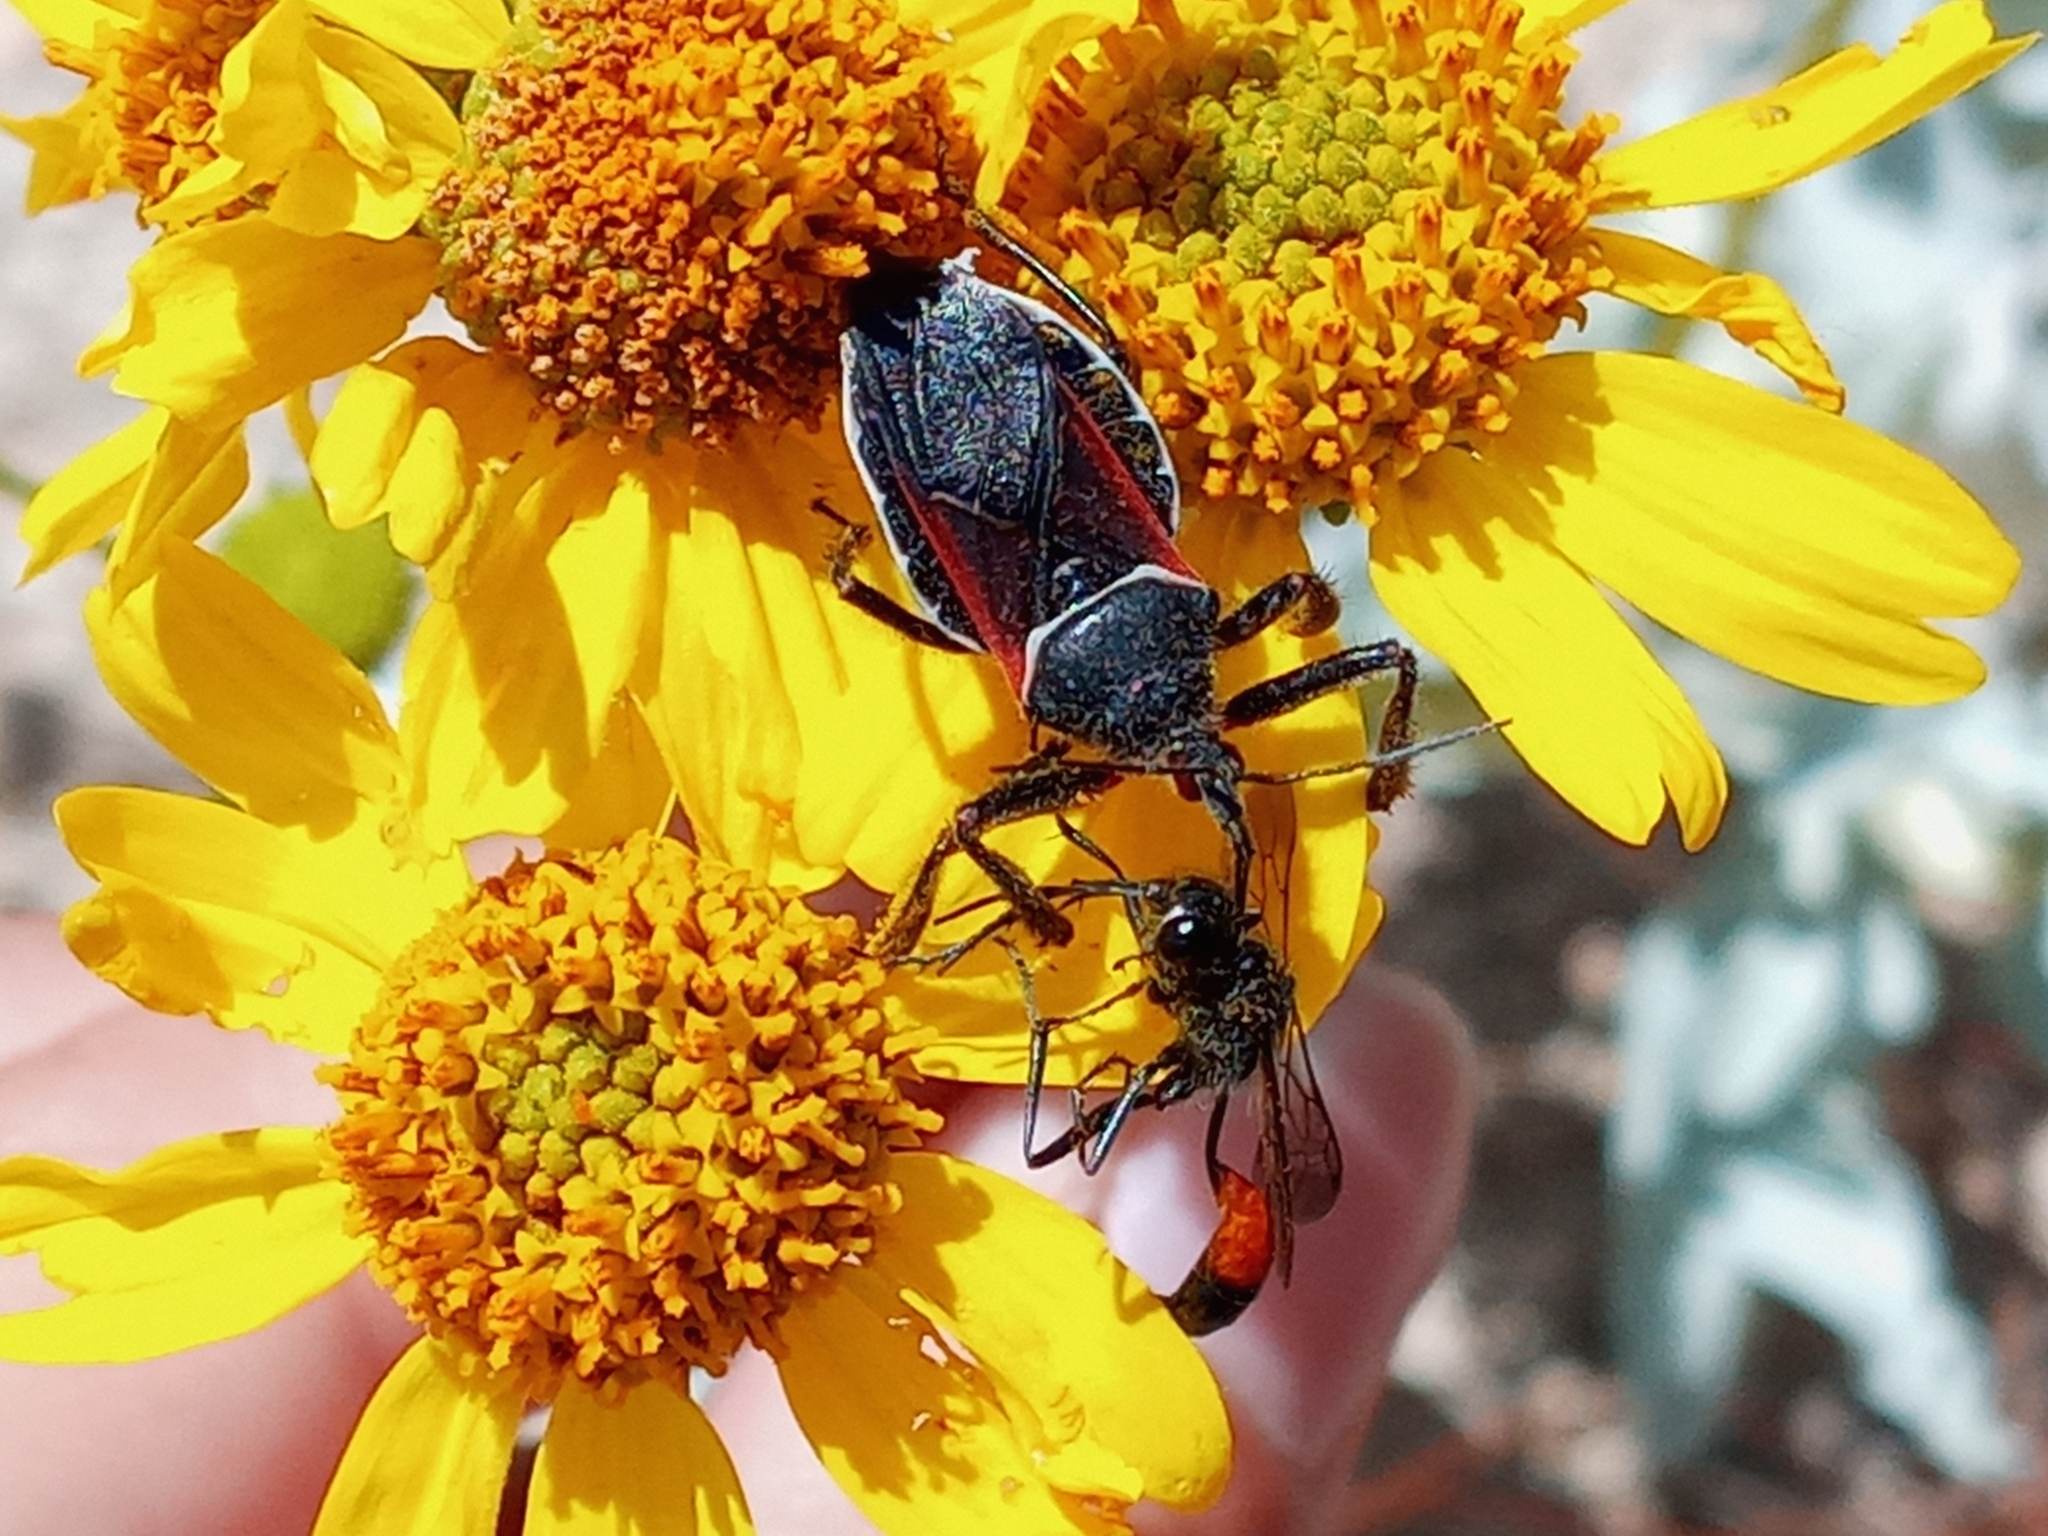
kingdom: Animalia
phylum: Arthropoda
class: Insecta
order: Hemiptera
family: Reduviidae
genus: Apiomerus
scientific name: Apiomerus californicus
